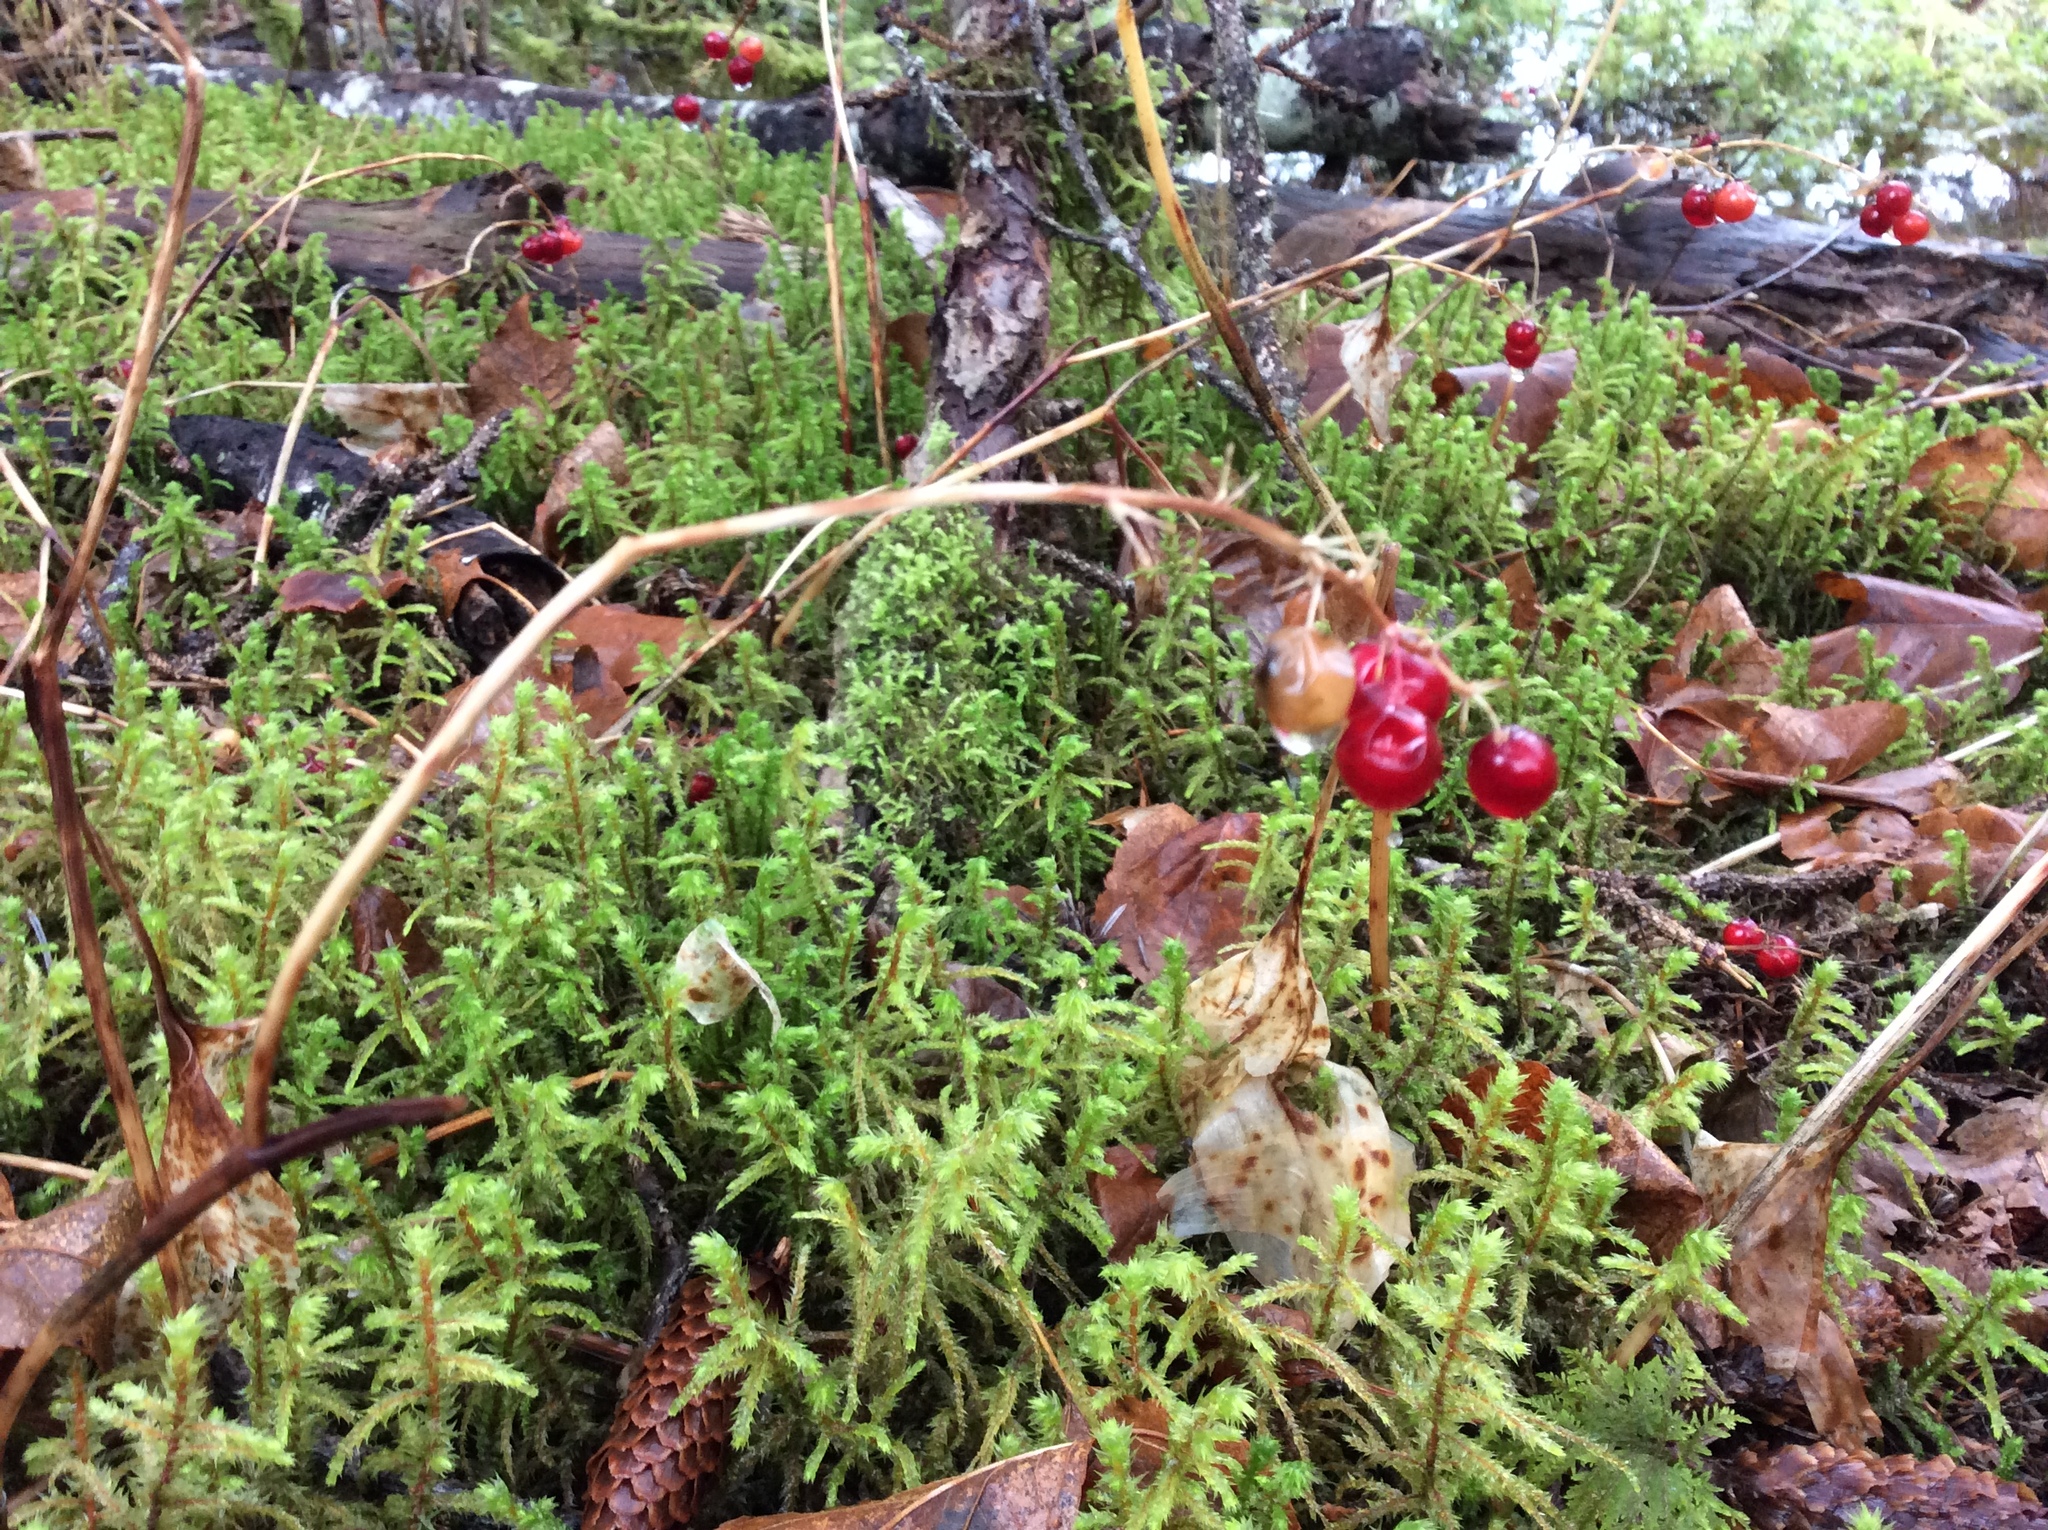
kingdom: Plantae
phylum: Tracheophyta
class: Liliopsida
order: Asparagales
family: Asparagaceae
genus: Maianthemum
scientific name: Maianthemum dilatatum
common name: False lily-of-the-valley
